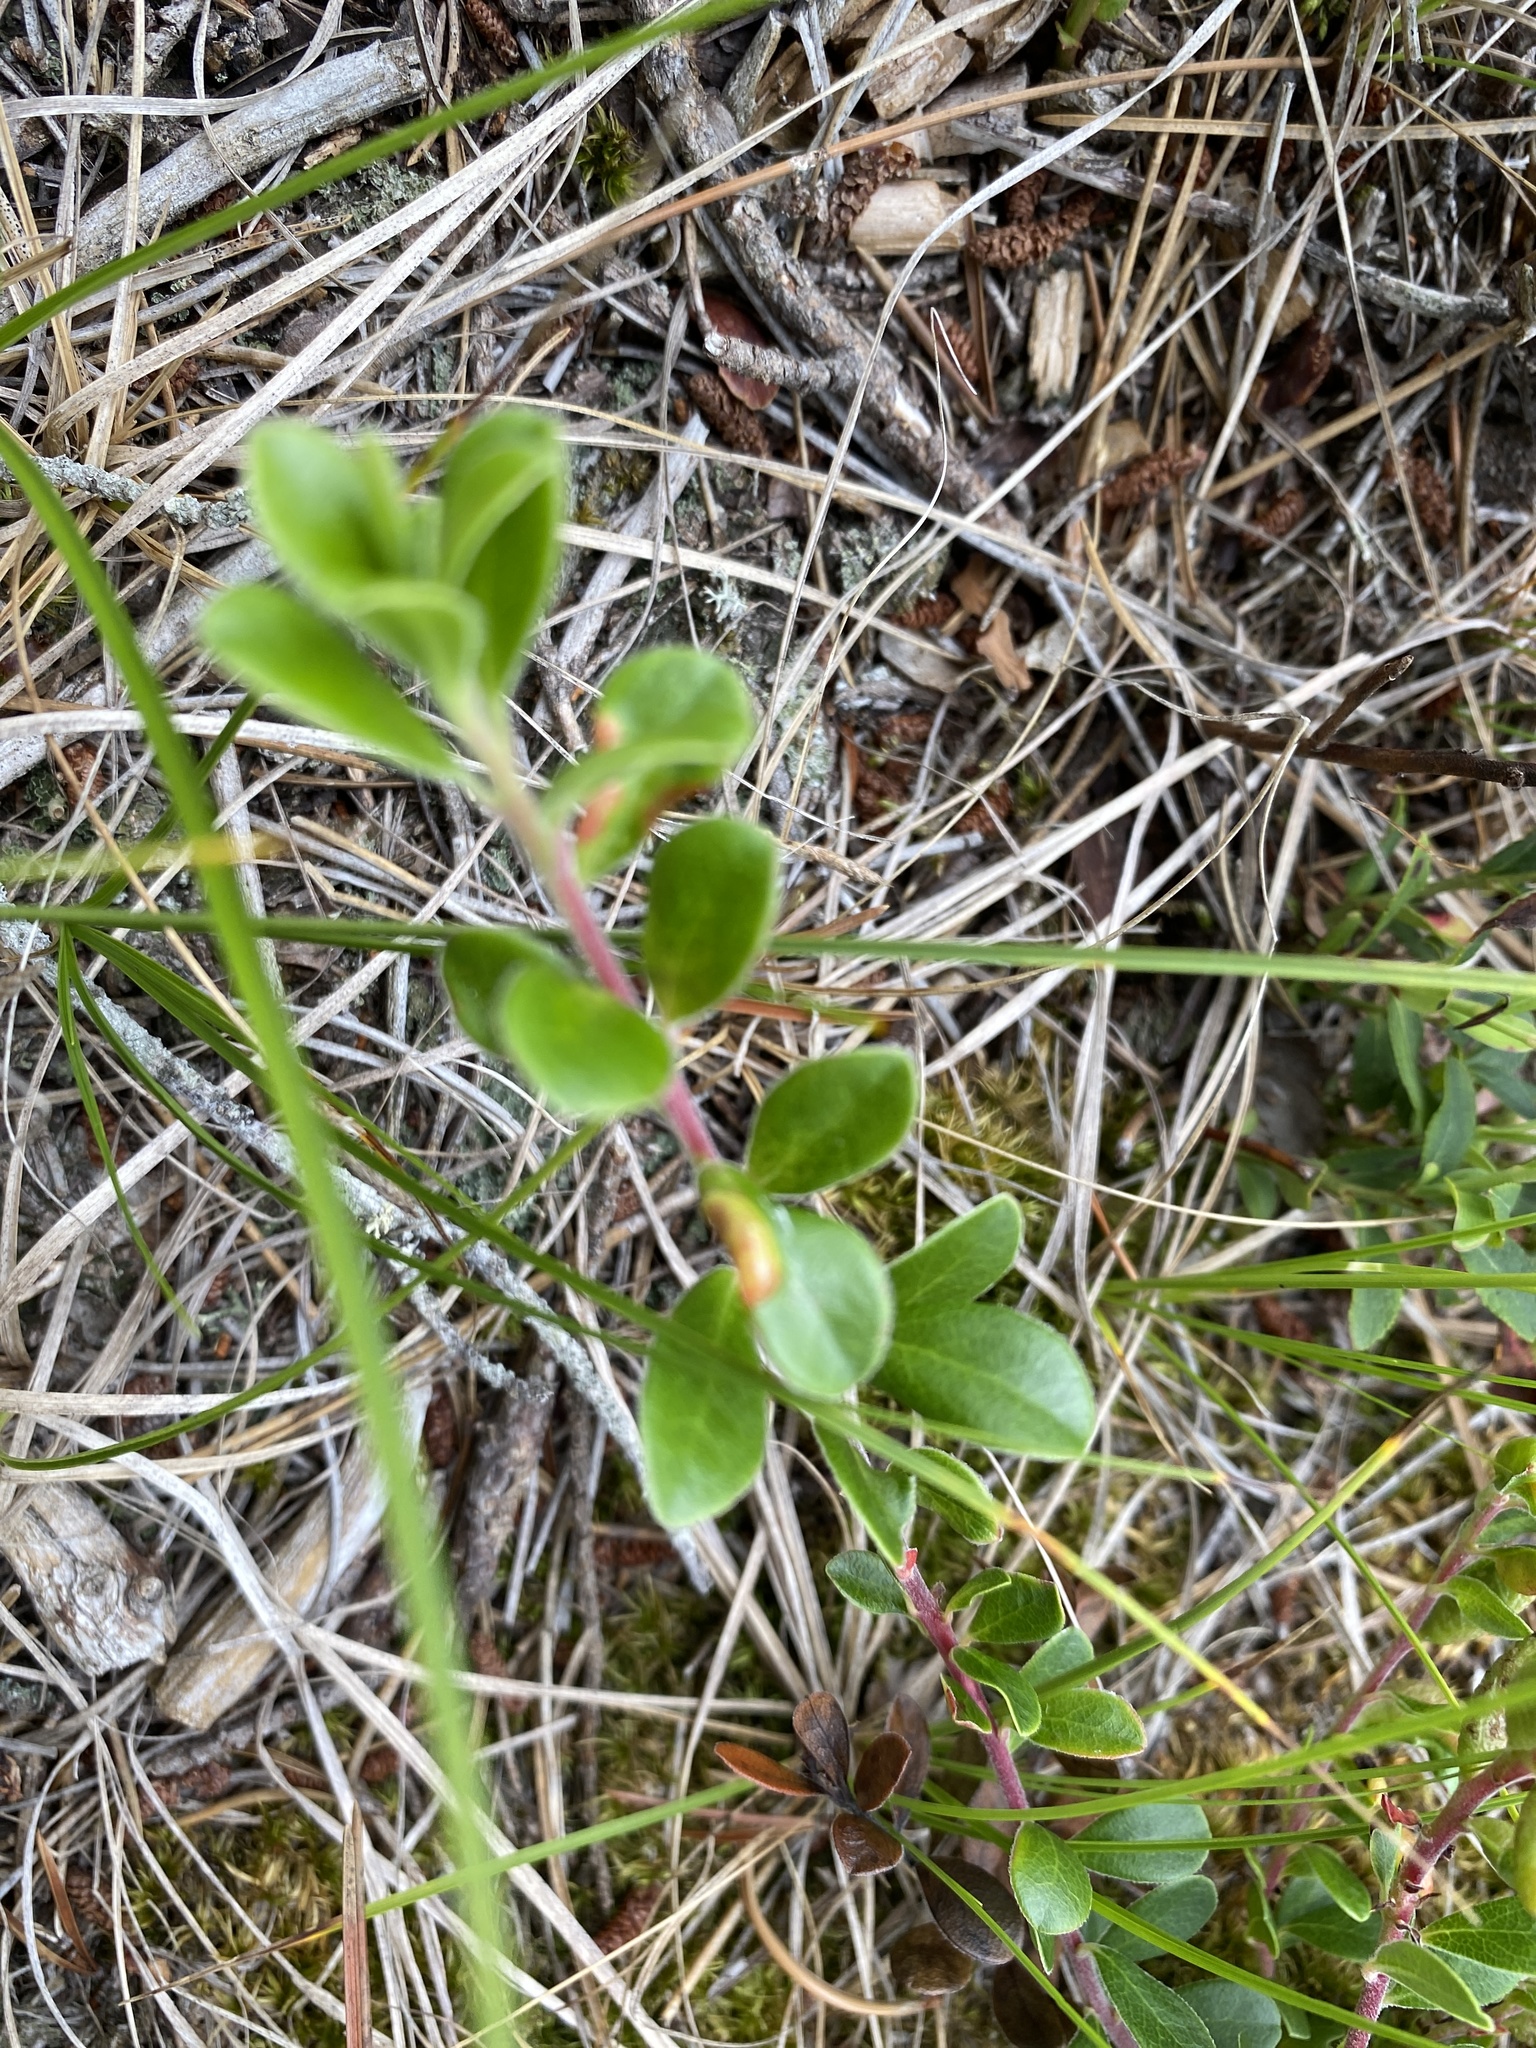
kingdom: Plantae
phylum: Tracheophyta
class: Magnoliopsida
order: Ericales
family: Ericaceae
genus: Arctostaphylos
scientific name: Arctostaphylos uva-ursi
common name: Bearberry
